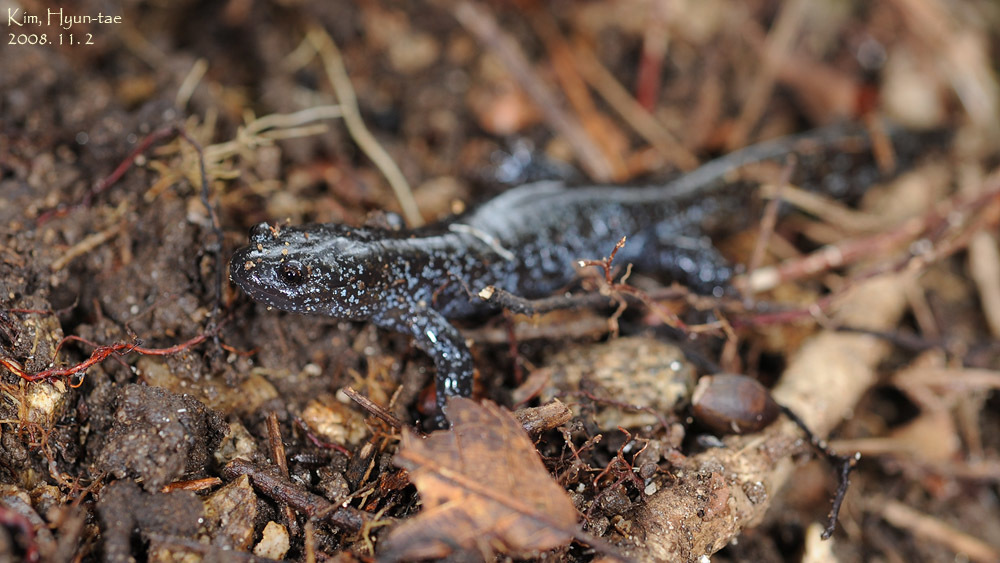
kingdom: Animalia
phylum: Chordata
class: Amphibia
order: Caudata
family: Hynobiidae
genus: Hynobius
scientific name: Hynobius leechii
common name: Gensan salamander
